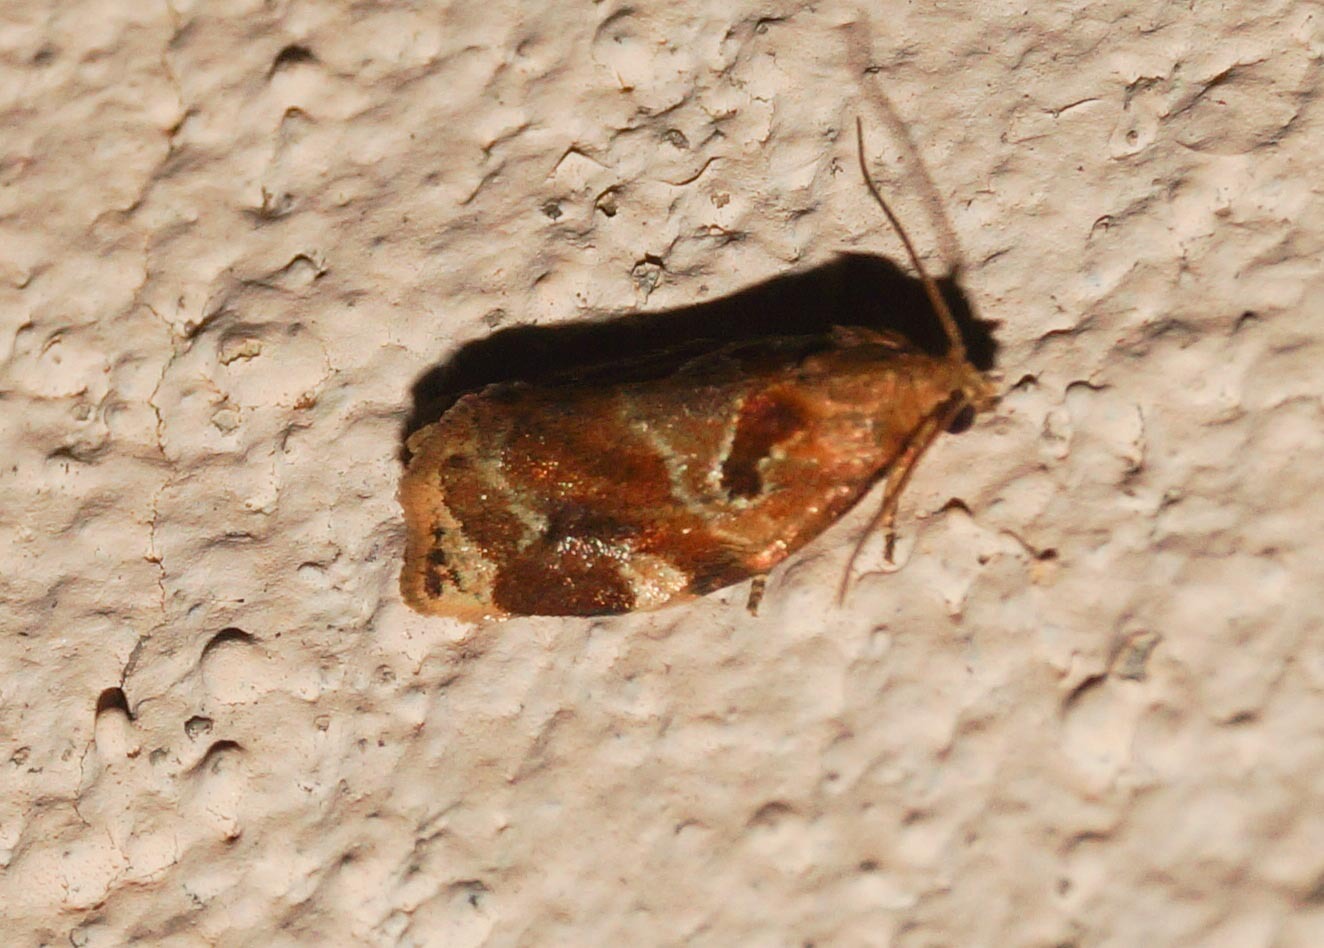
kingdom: Animalia
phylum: Arthropoda
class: Insecta
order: Lepidoptera
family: Tortricidae
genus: Archips
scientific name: Archips xylosteana
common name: Variegated golden tortrix
